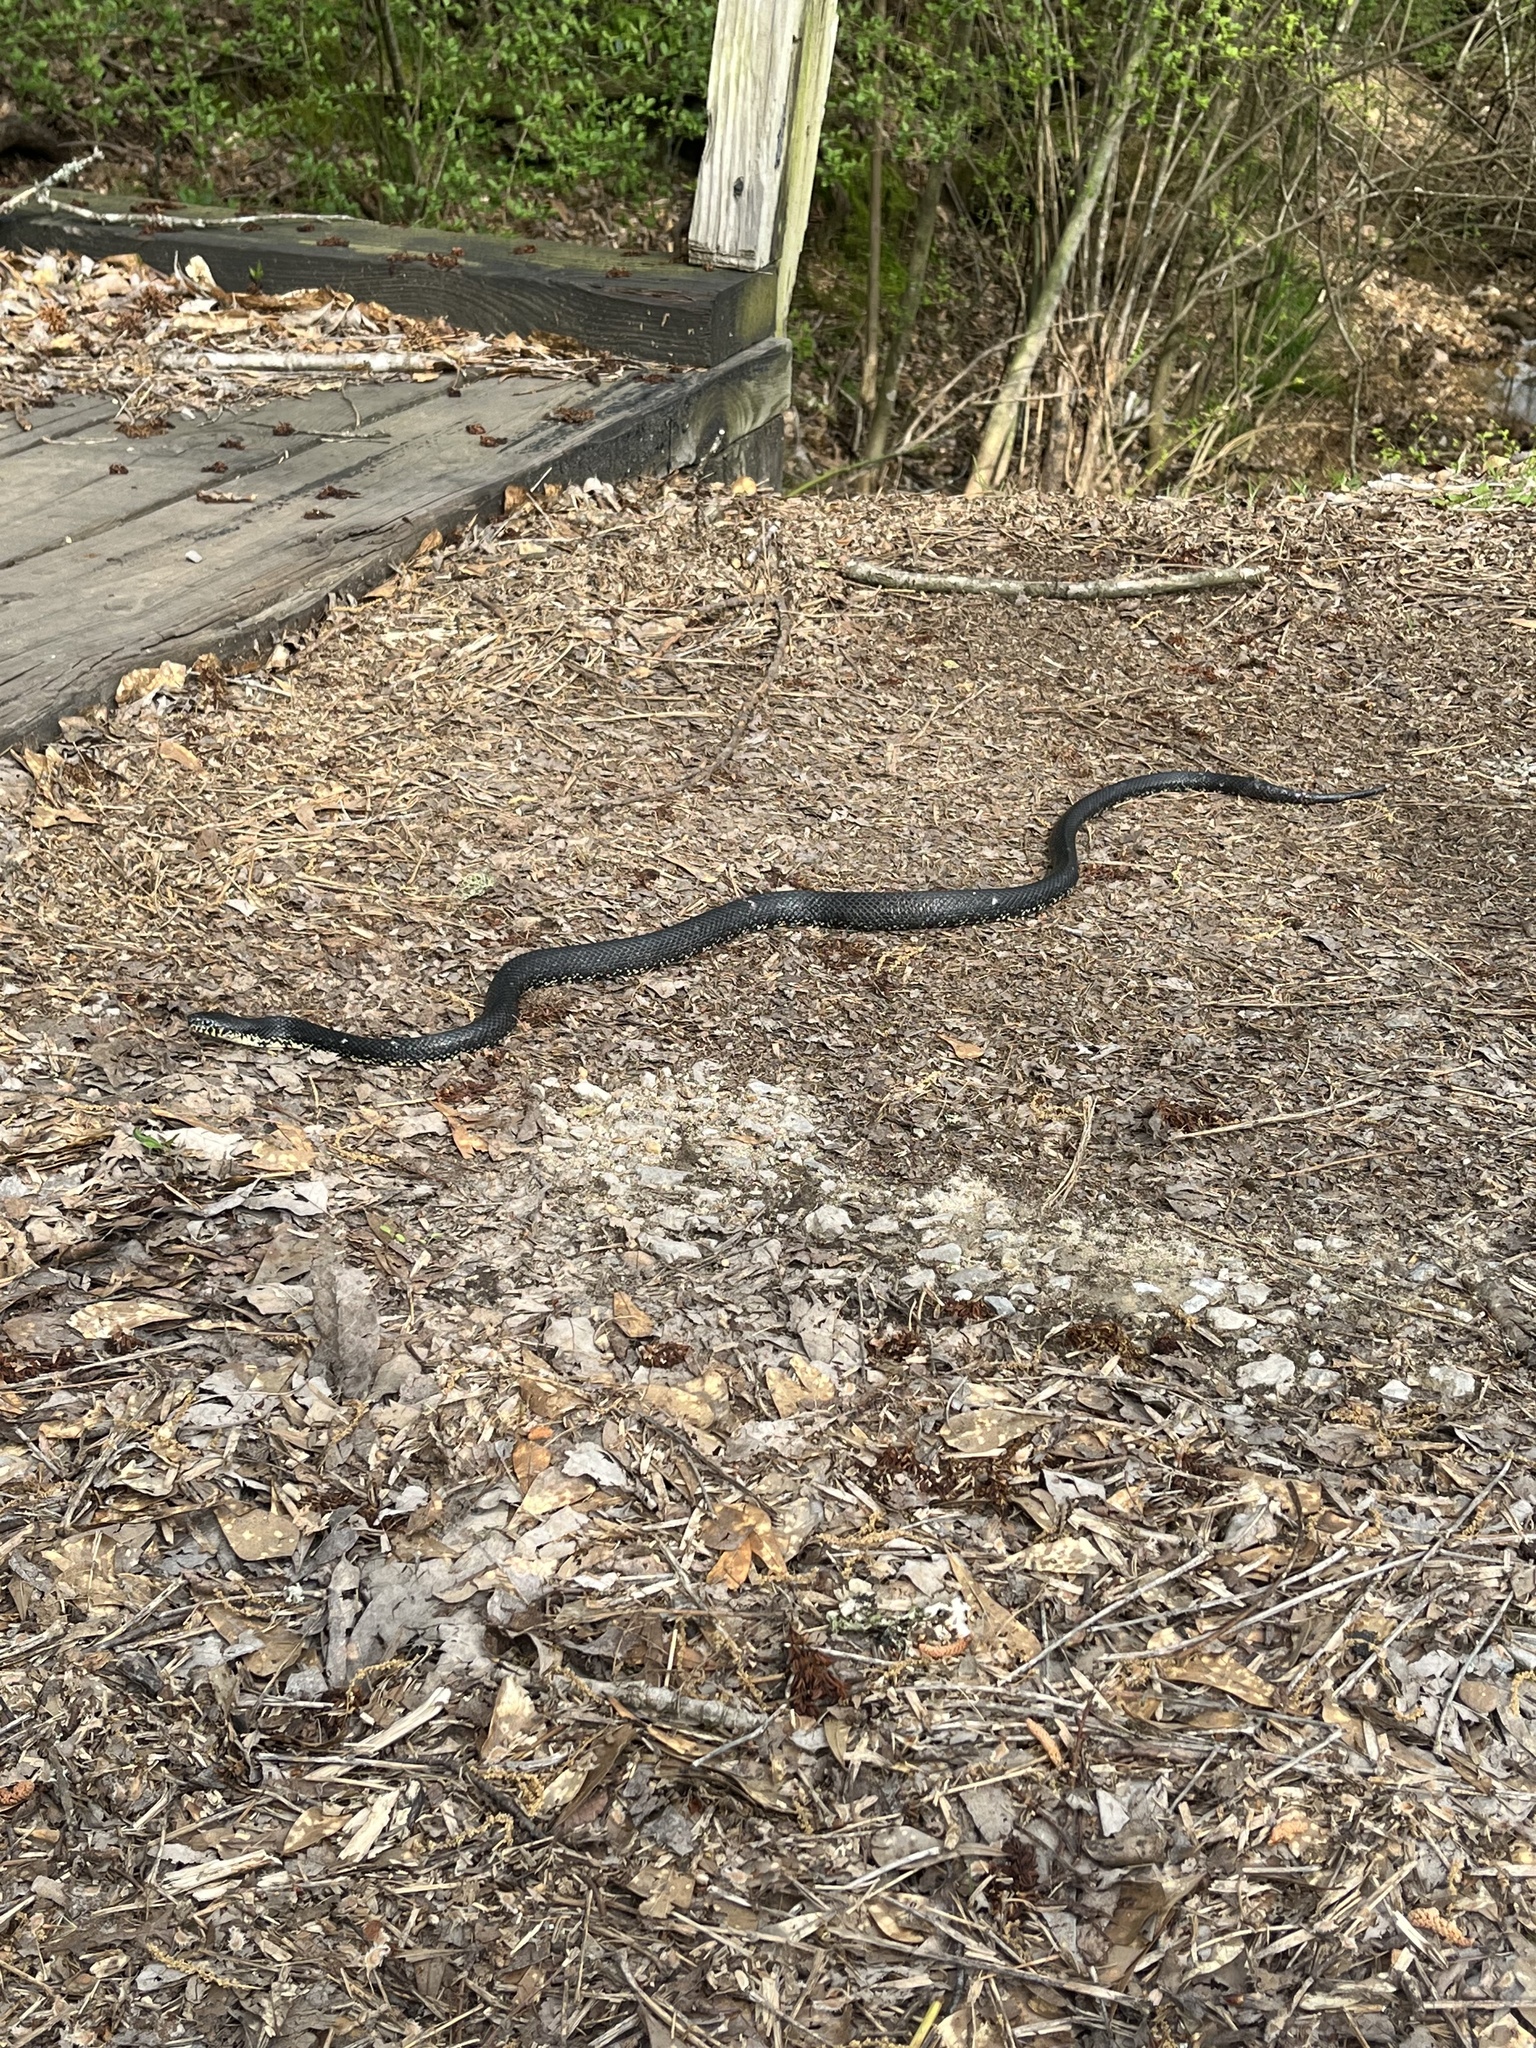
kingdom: Animalia
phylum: Chordata
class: Squamata
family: Colubridae
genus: Lampropeltis
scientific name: Lampropeltis nigra
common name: Black kingsnake
